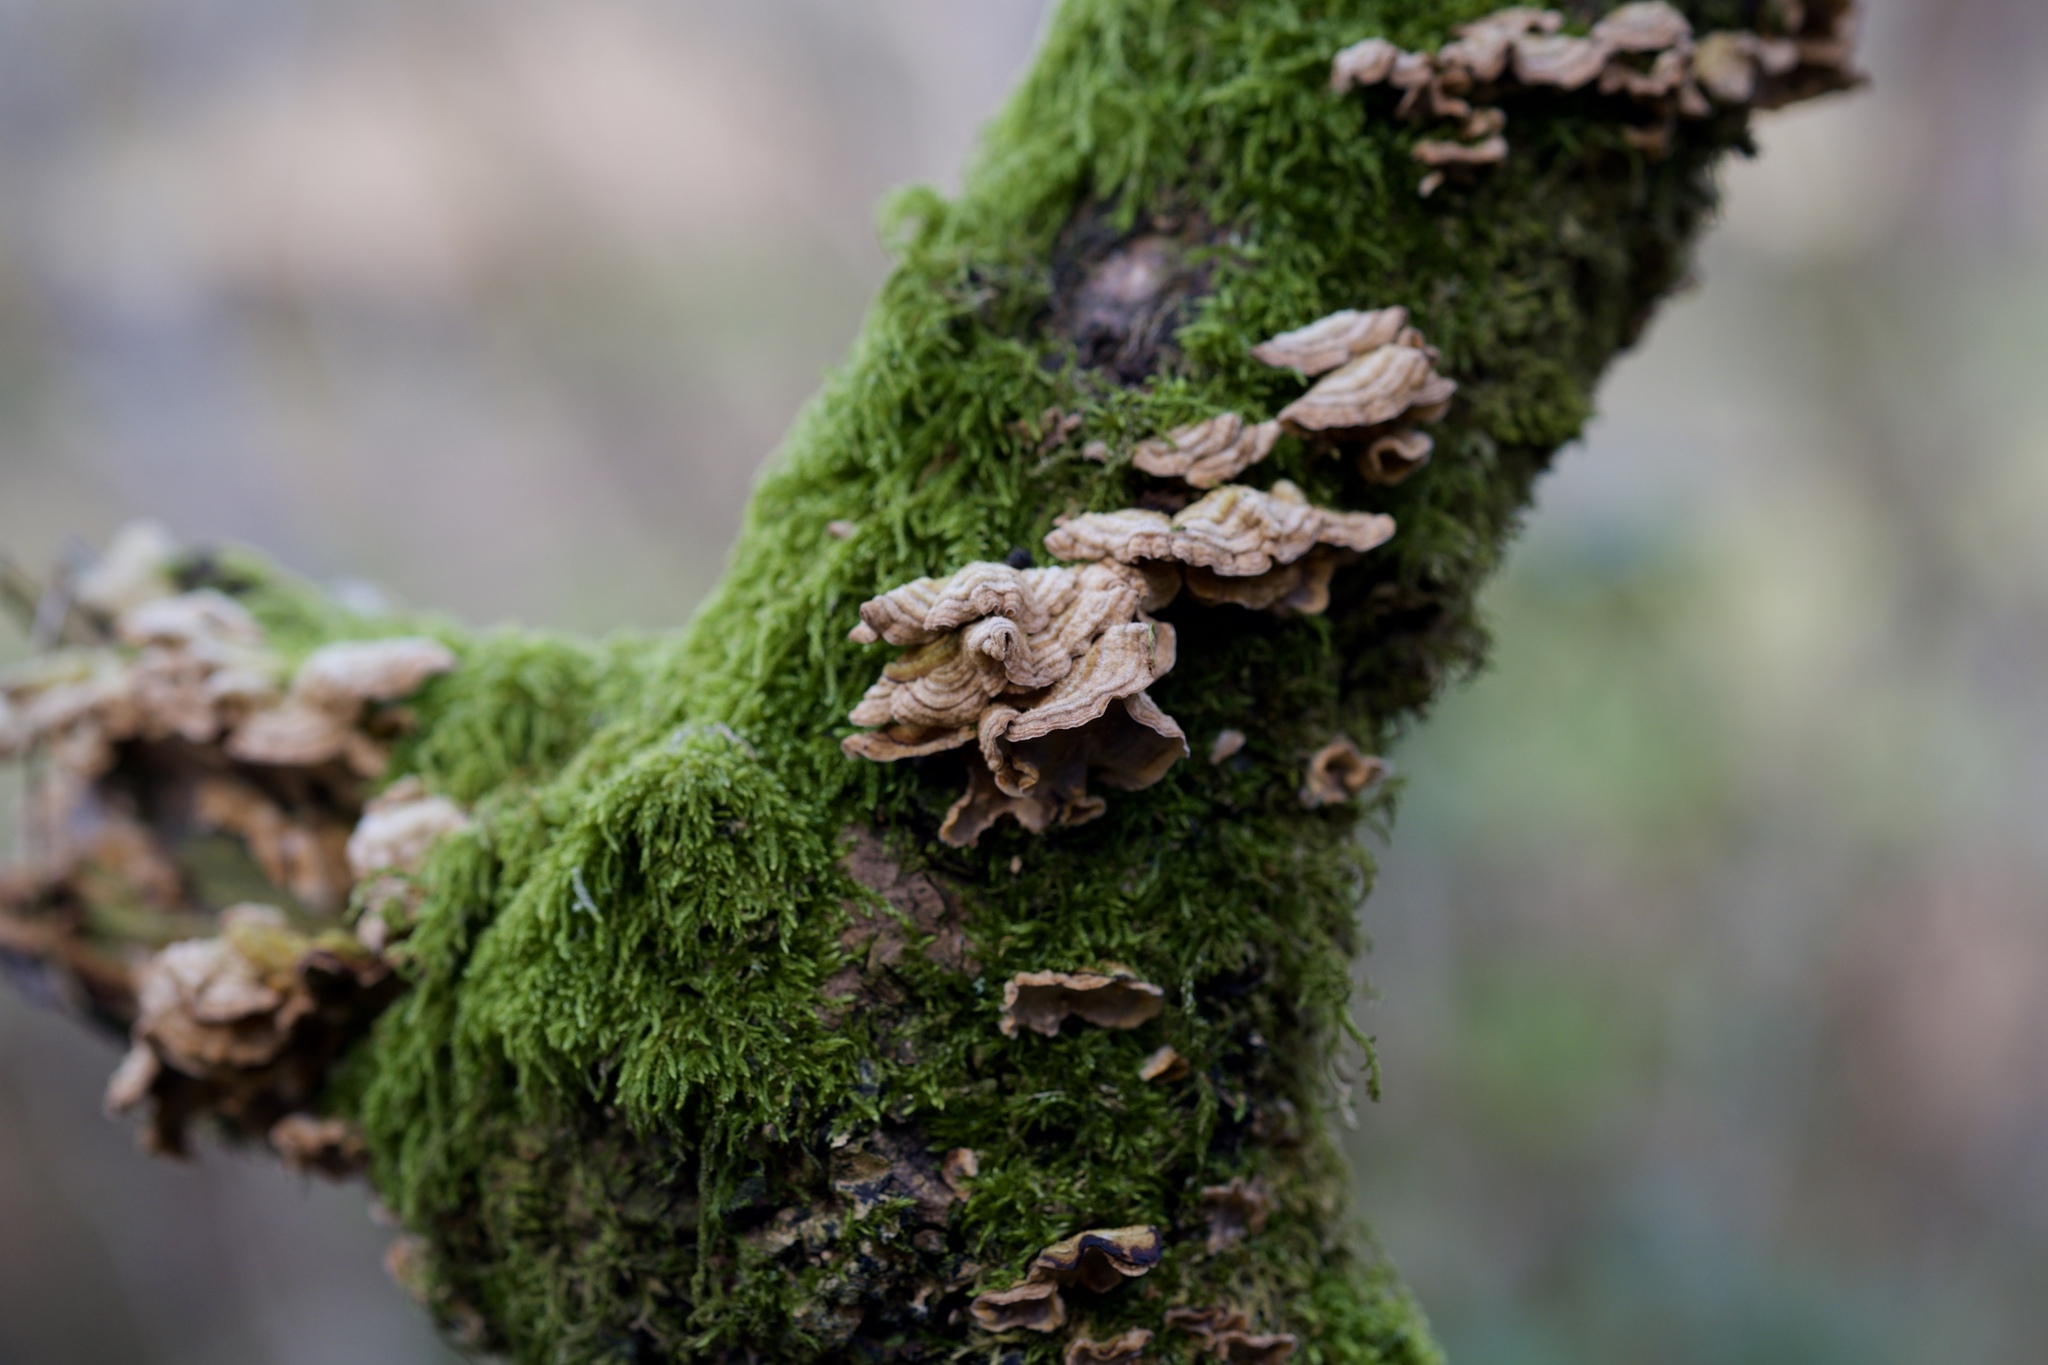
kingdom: Fungi
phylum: Basidiomycota
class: Agaricomycetes
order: Russulales
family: Stereaceae
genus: Stereum
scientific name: Stereum hirsutum
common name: Hairy curtain crust
